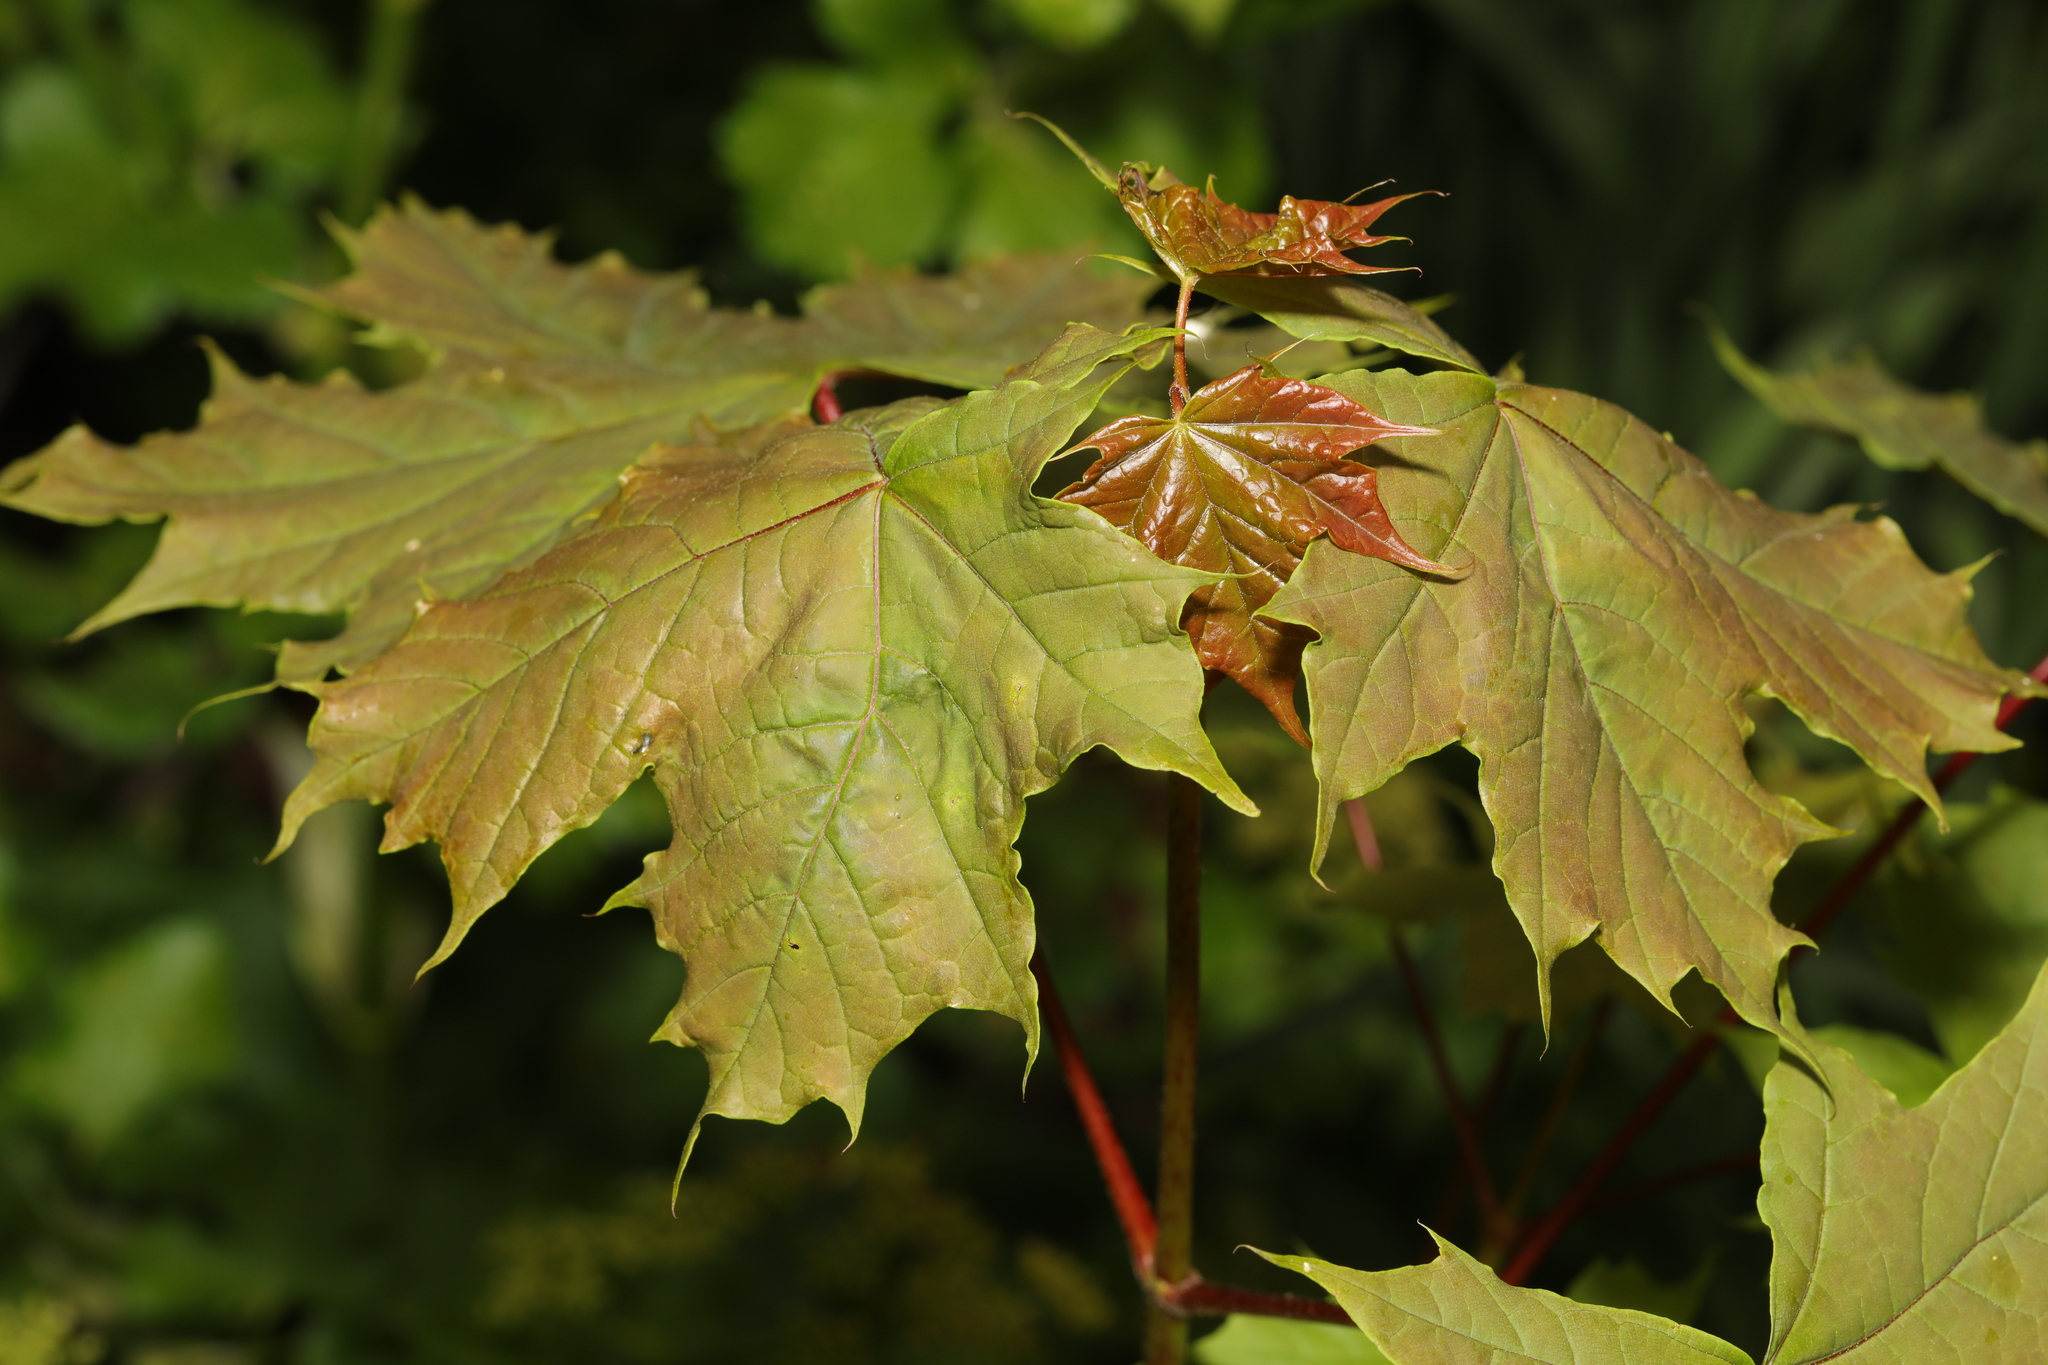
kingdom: Plantae
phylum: Tracheophyta
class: Magnoliopsida
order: Sapindales
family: Sapindaceae
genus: Acer
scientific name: Acer platanoides
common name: Norway maple
